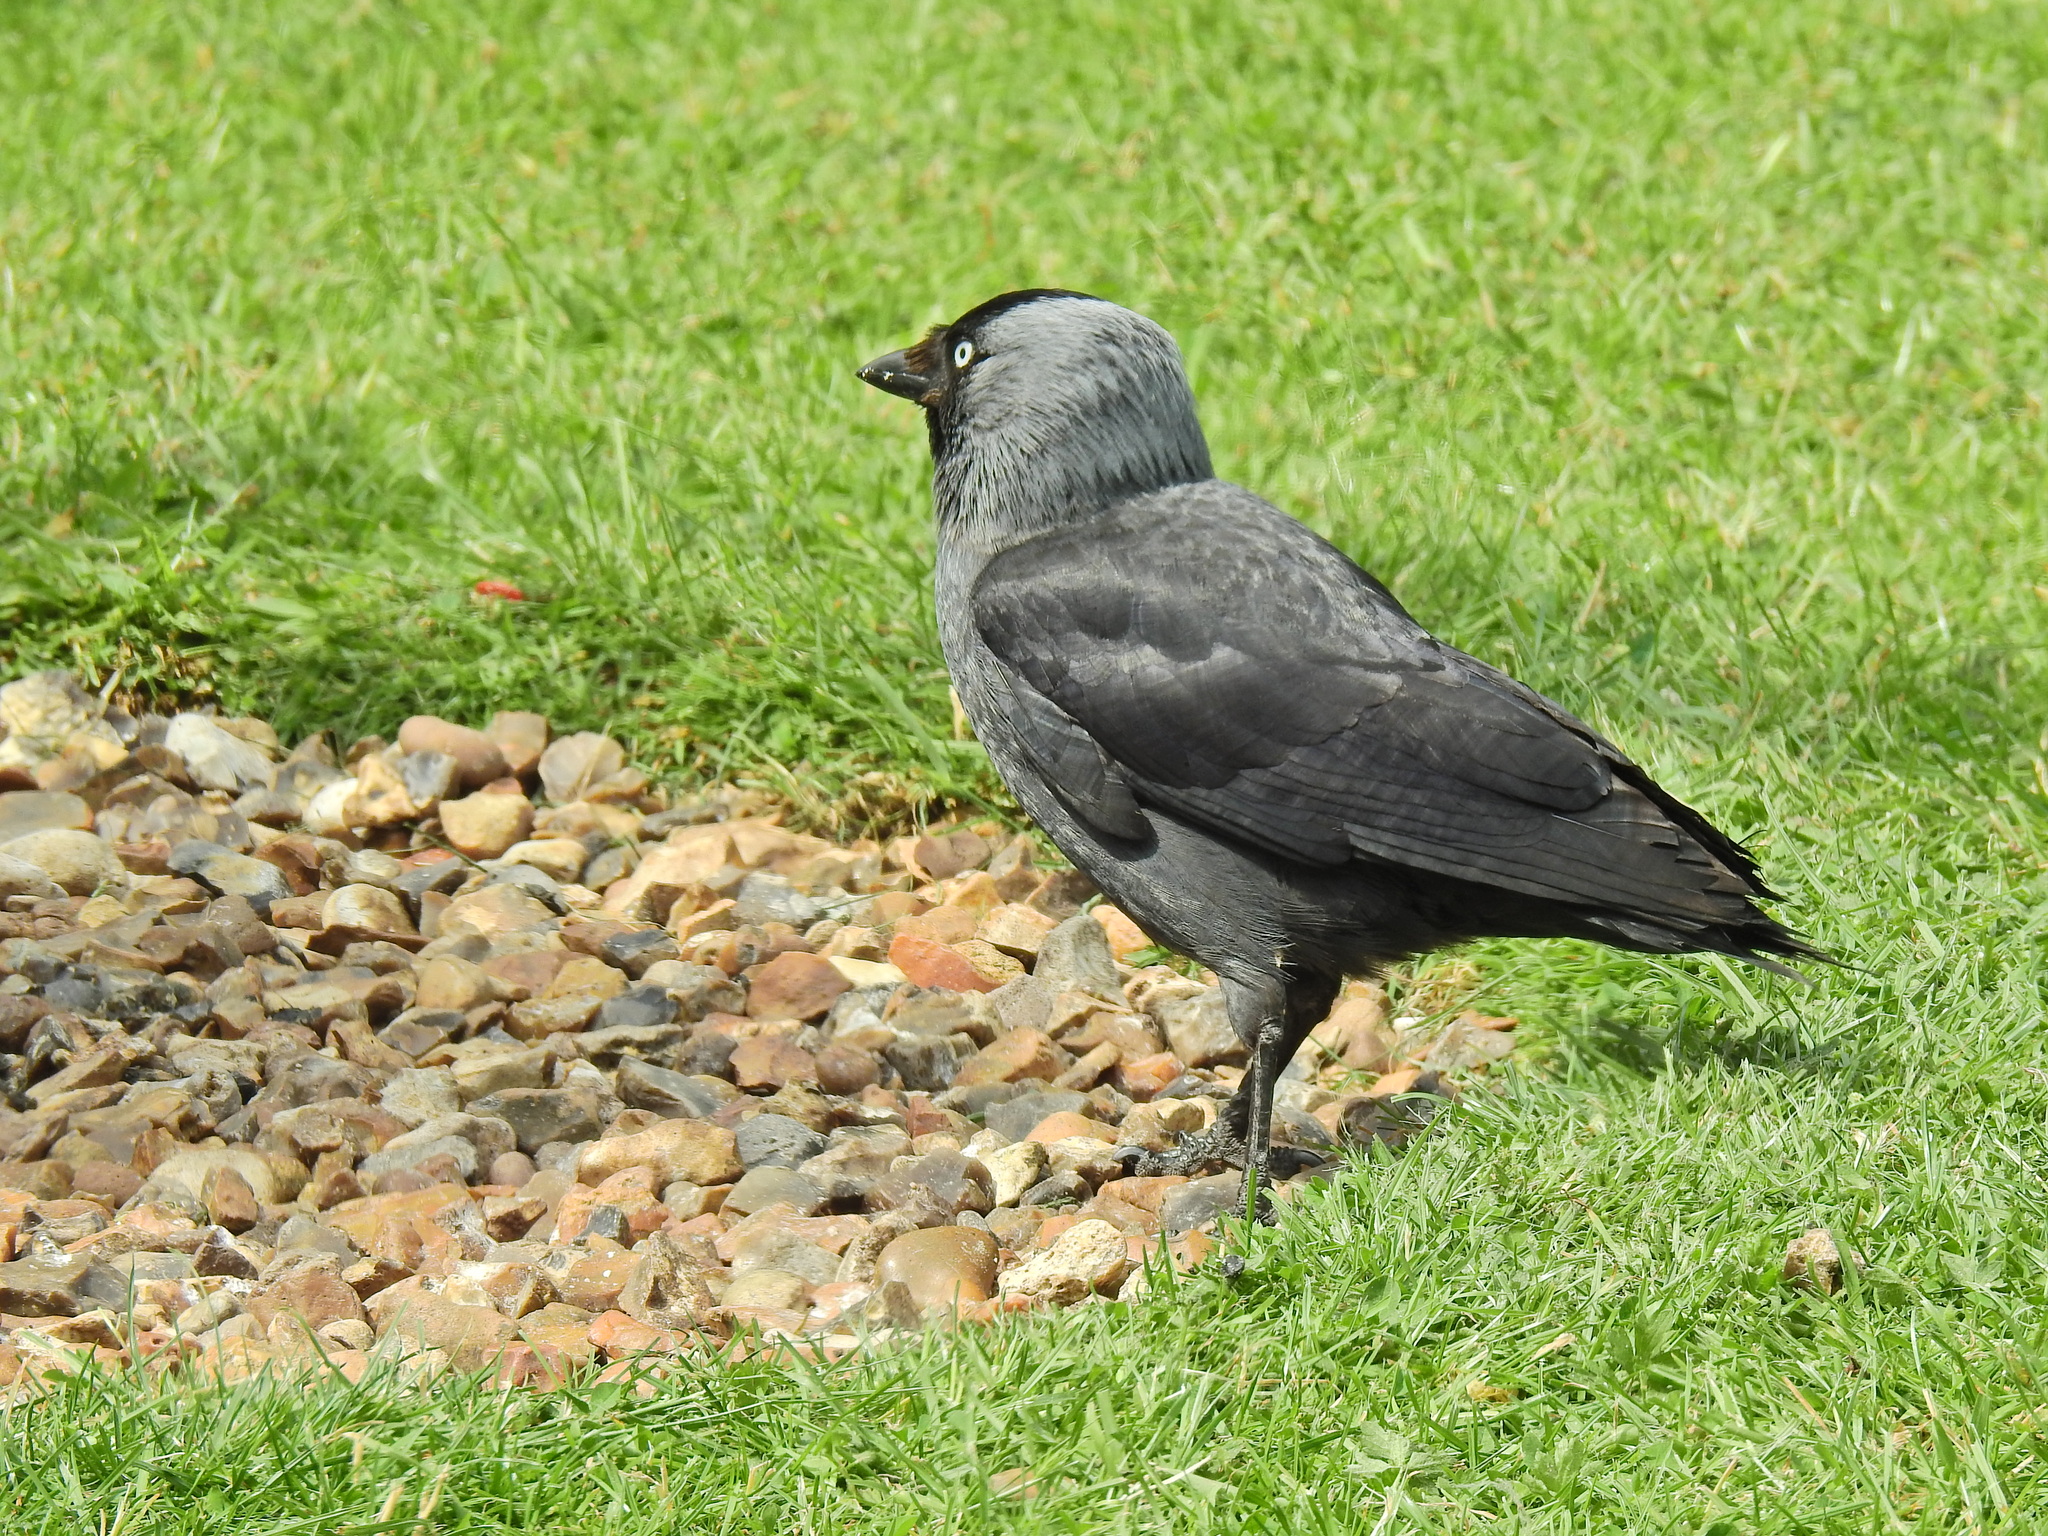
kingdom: Animalia
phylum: Chordata
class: Aves
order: Passeriformes
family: Corvidae
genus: Coloeus
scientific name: Coloeus monedula
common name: Western jackdaw
